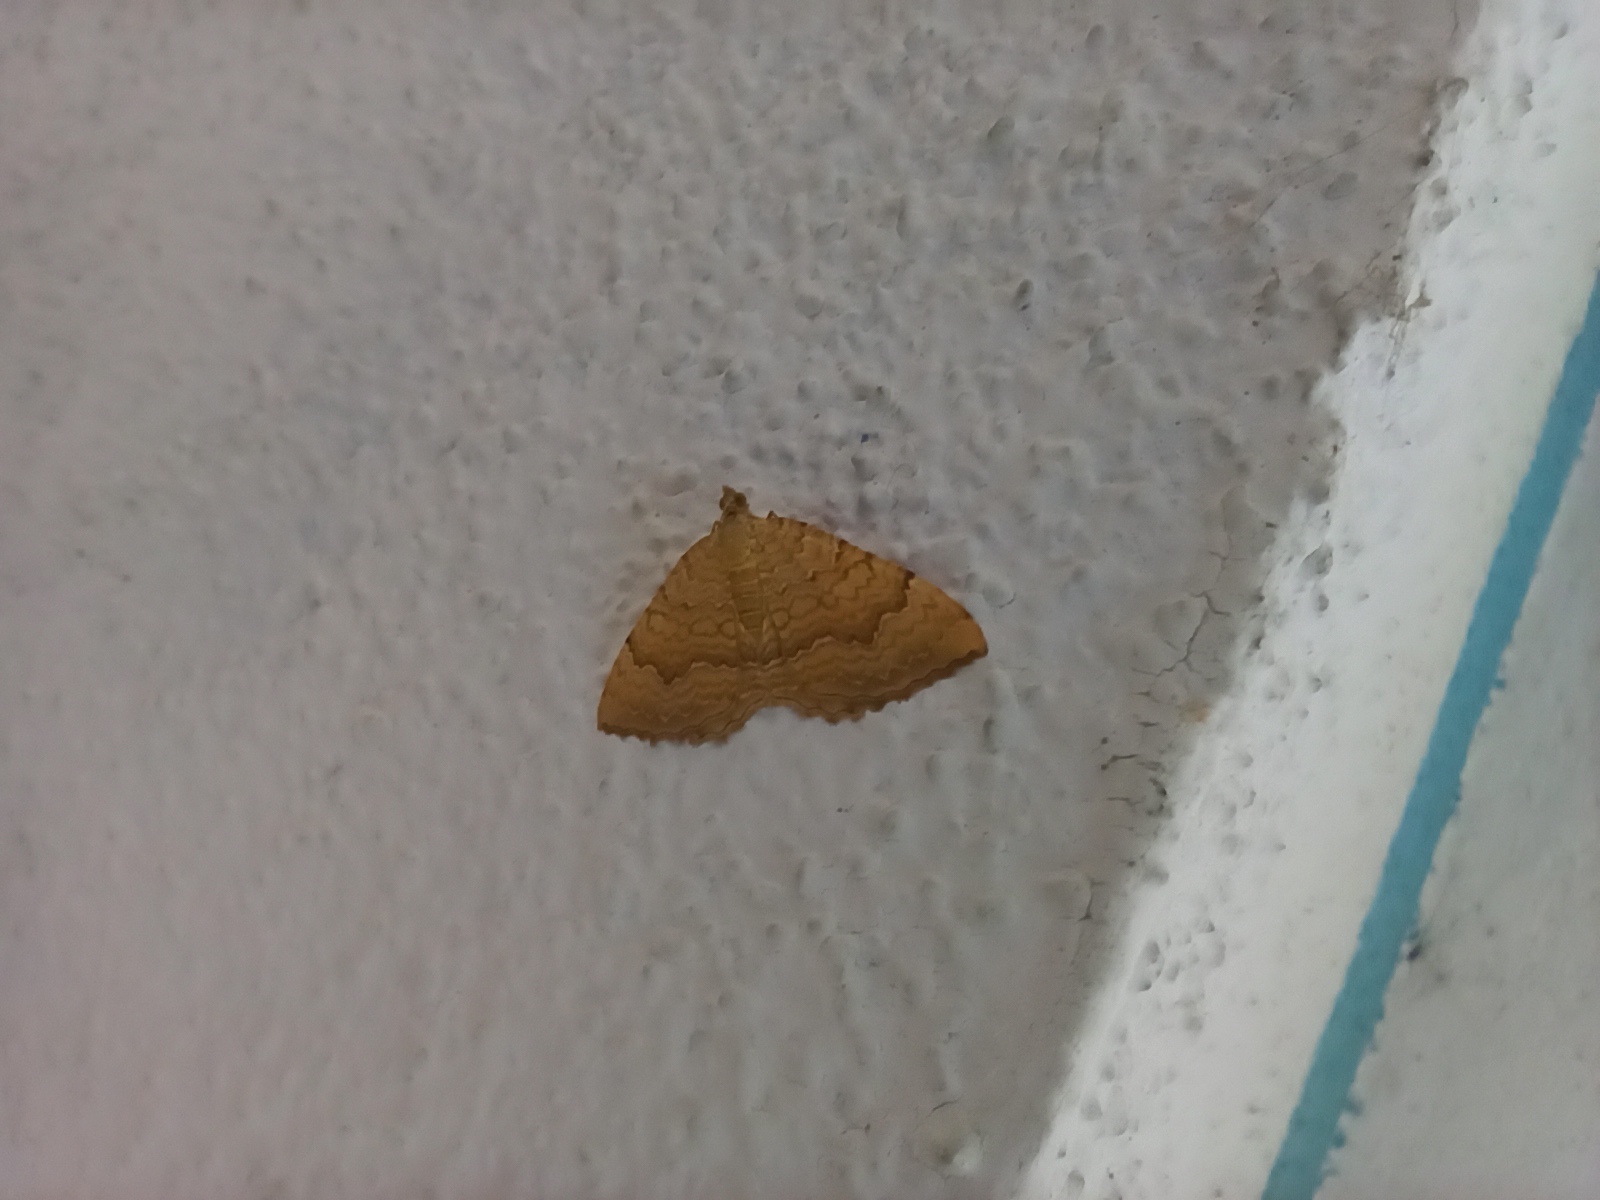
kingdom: Animalia
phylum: Arthropoda
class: Insecta
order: Lepidoptera
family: Geometridae
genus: Camptogramma
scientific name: Camptogramma bilineata
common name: Yellow shell
